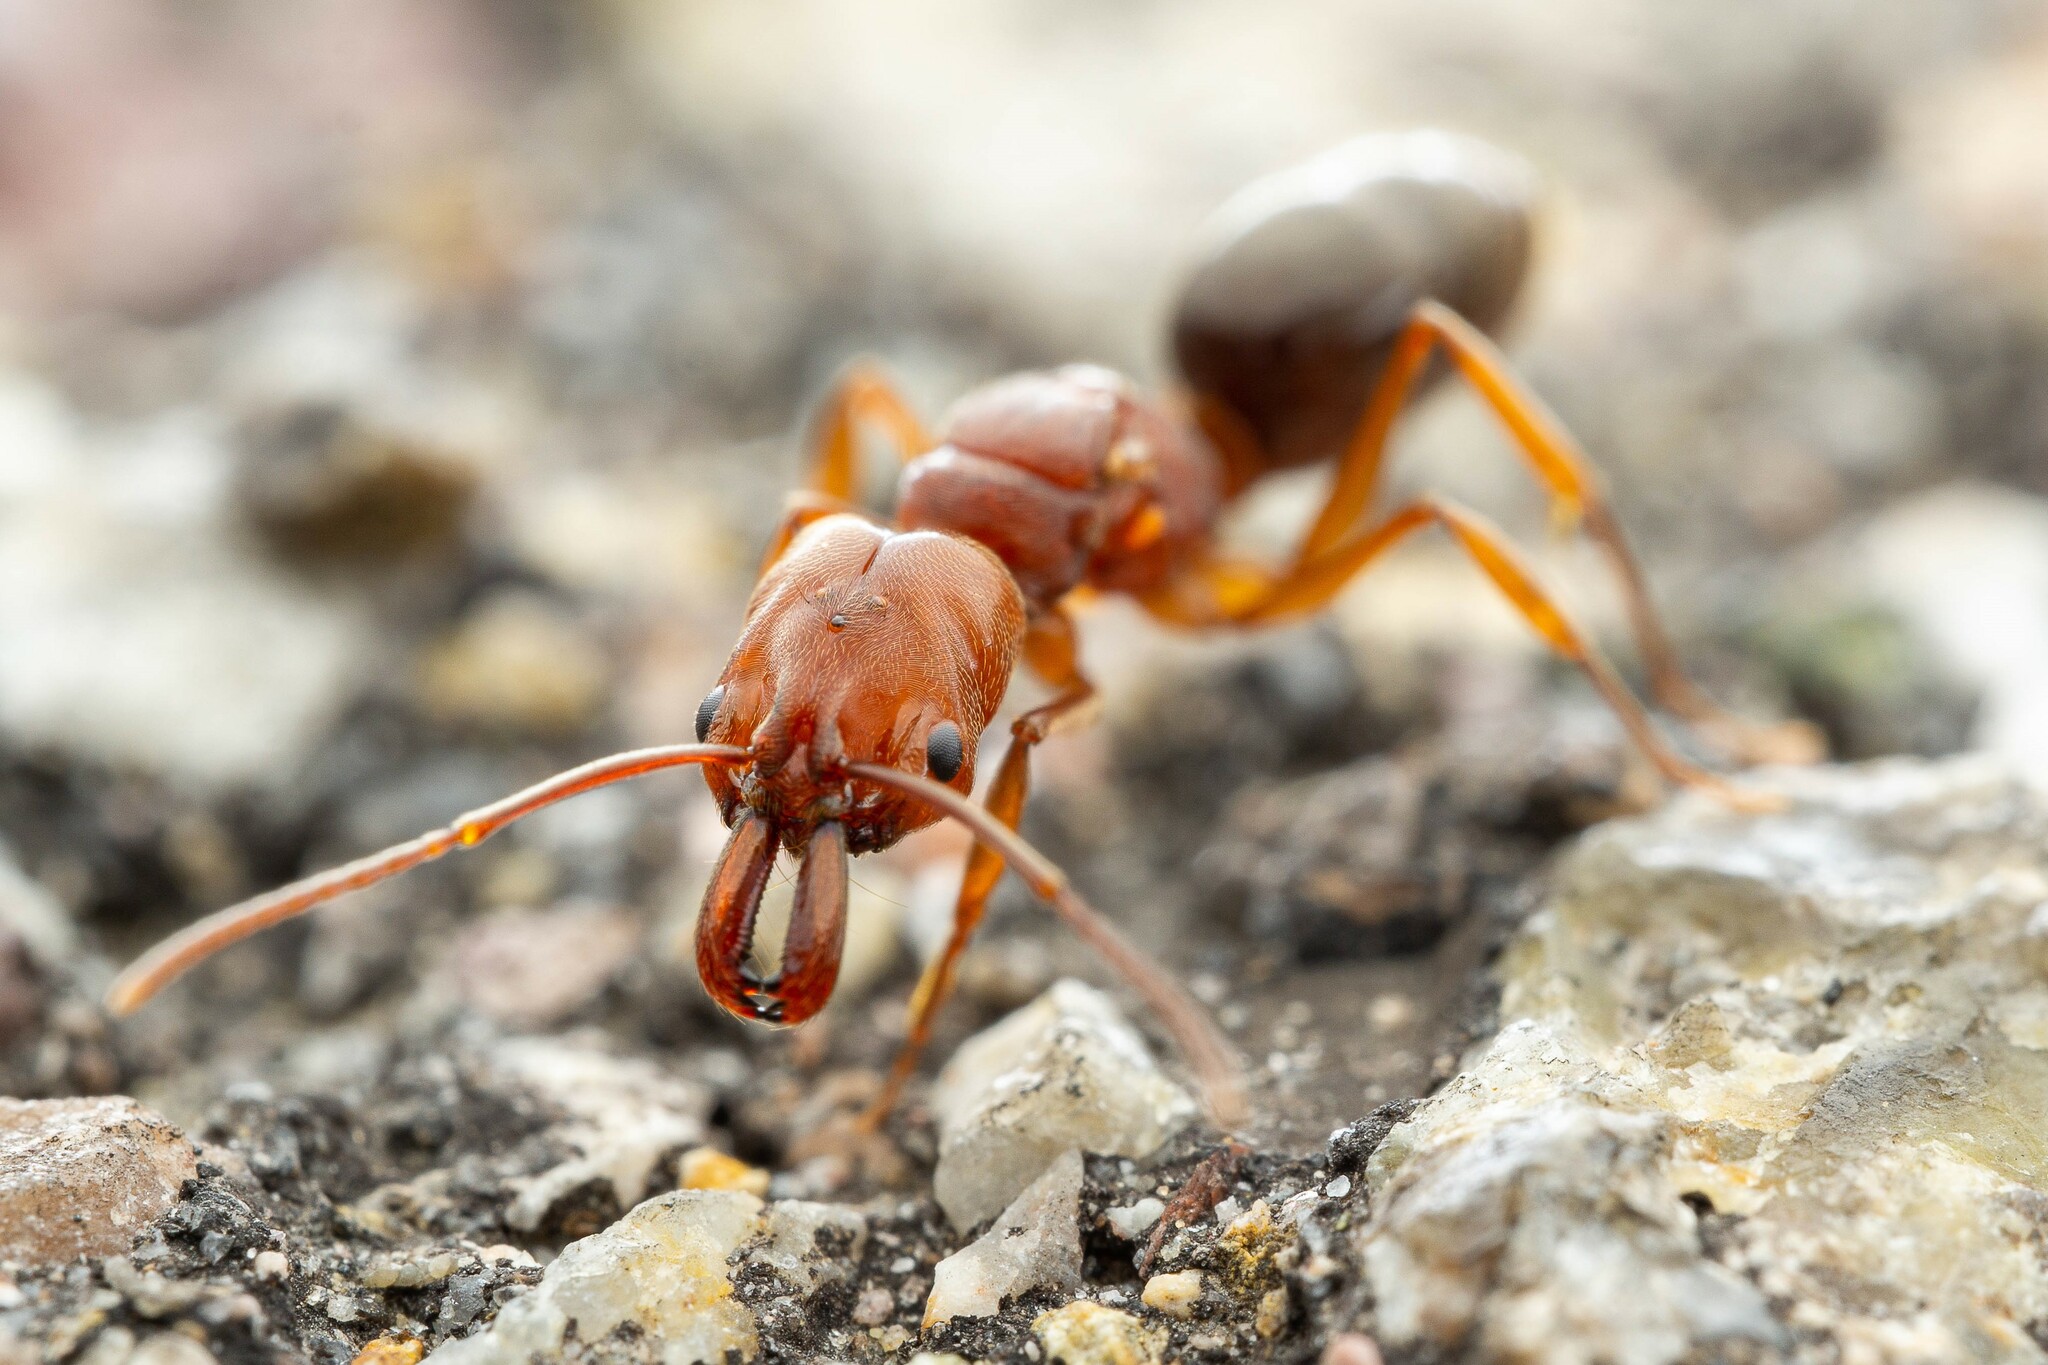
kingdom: Animalia
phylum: Arthropoda
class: Insecta
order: Hymenoptera
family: Formicidae
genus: Odontomachus
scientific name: Odontomachus clarus
